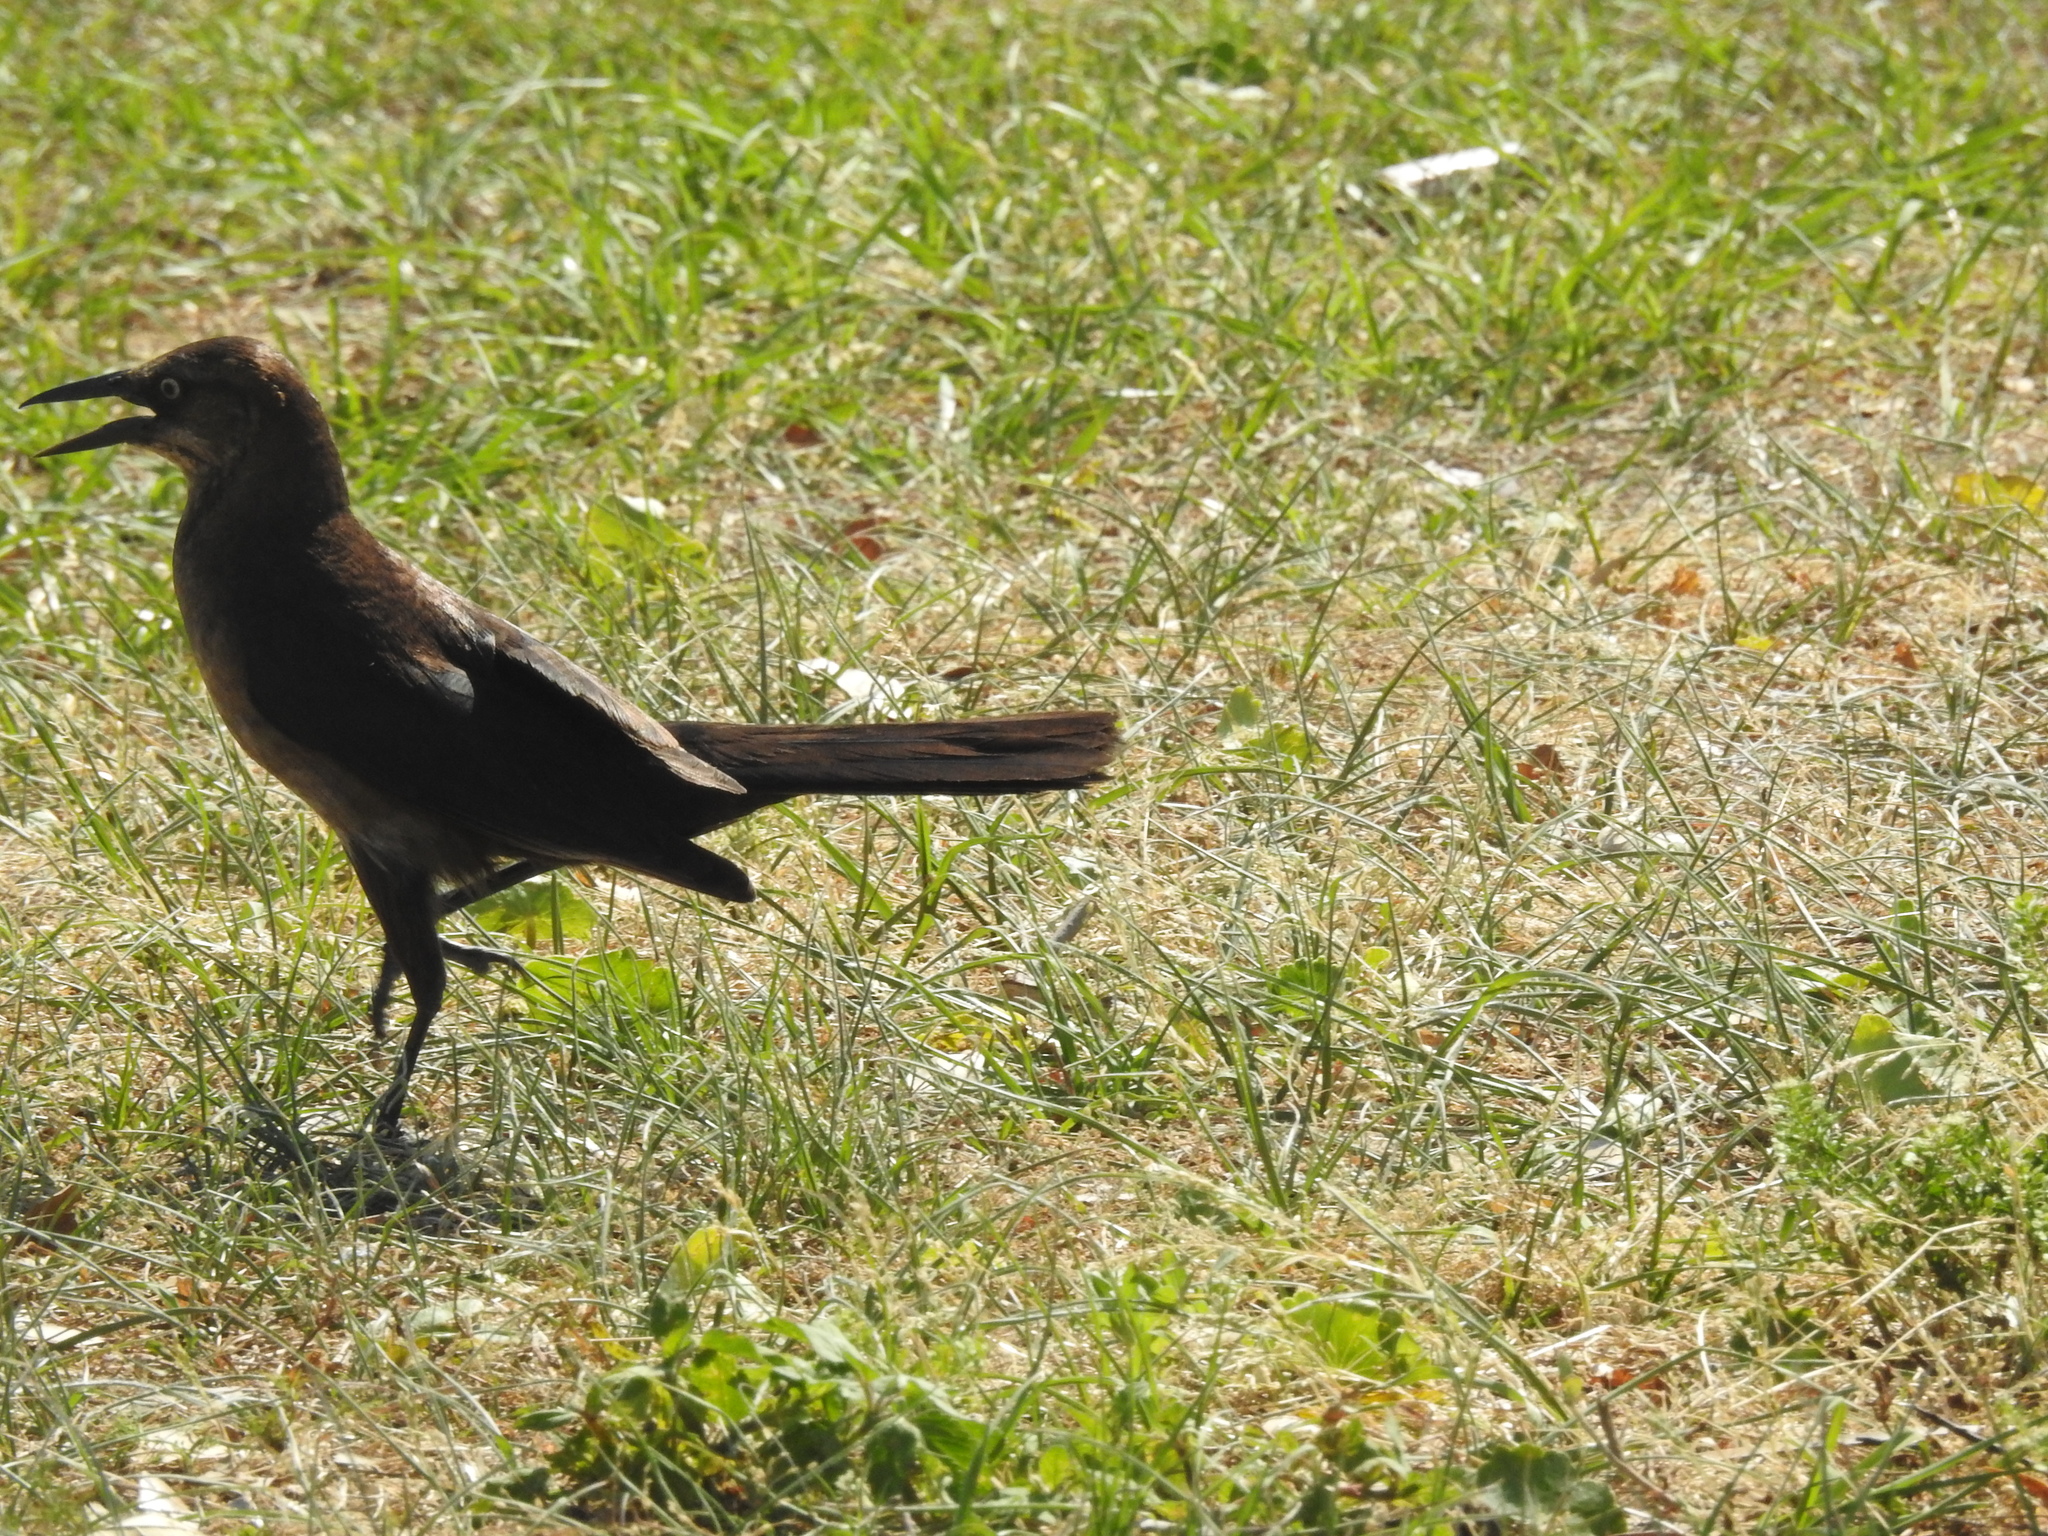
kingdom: Animalia
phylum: Chordata
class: Aves
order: Passeriformes
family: Icteridae
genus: Quiscalus
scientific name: Quiscalus major
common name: Boat-tailed grackle
